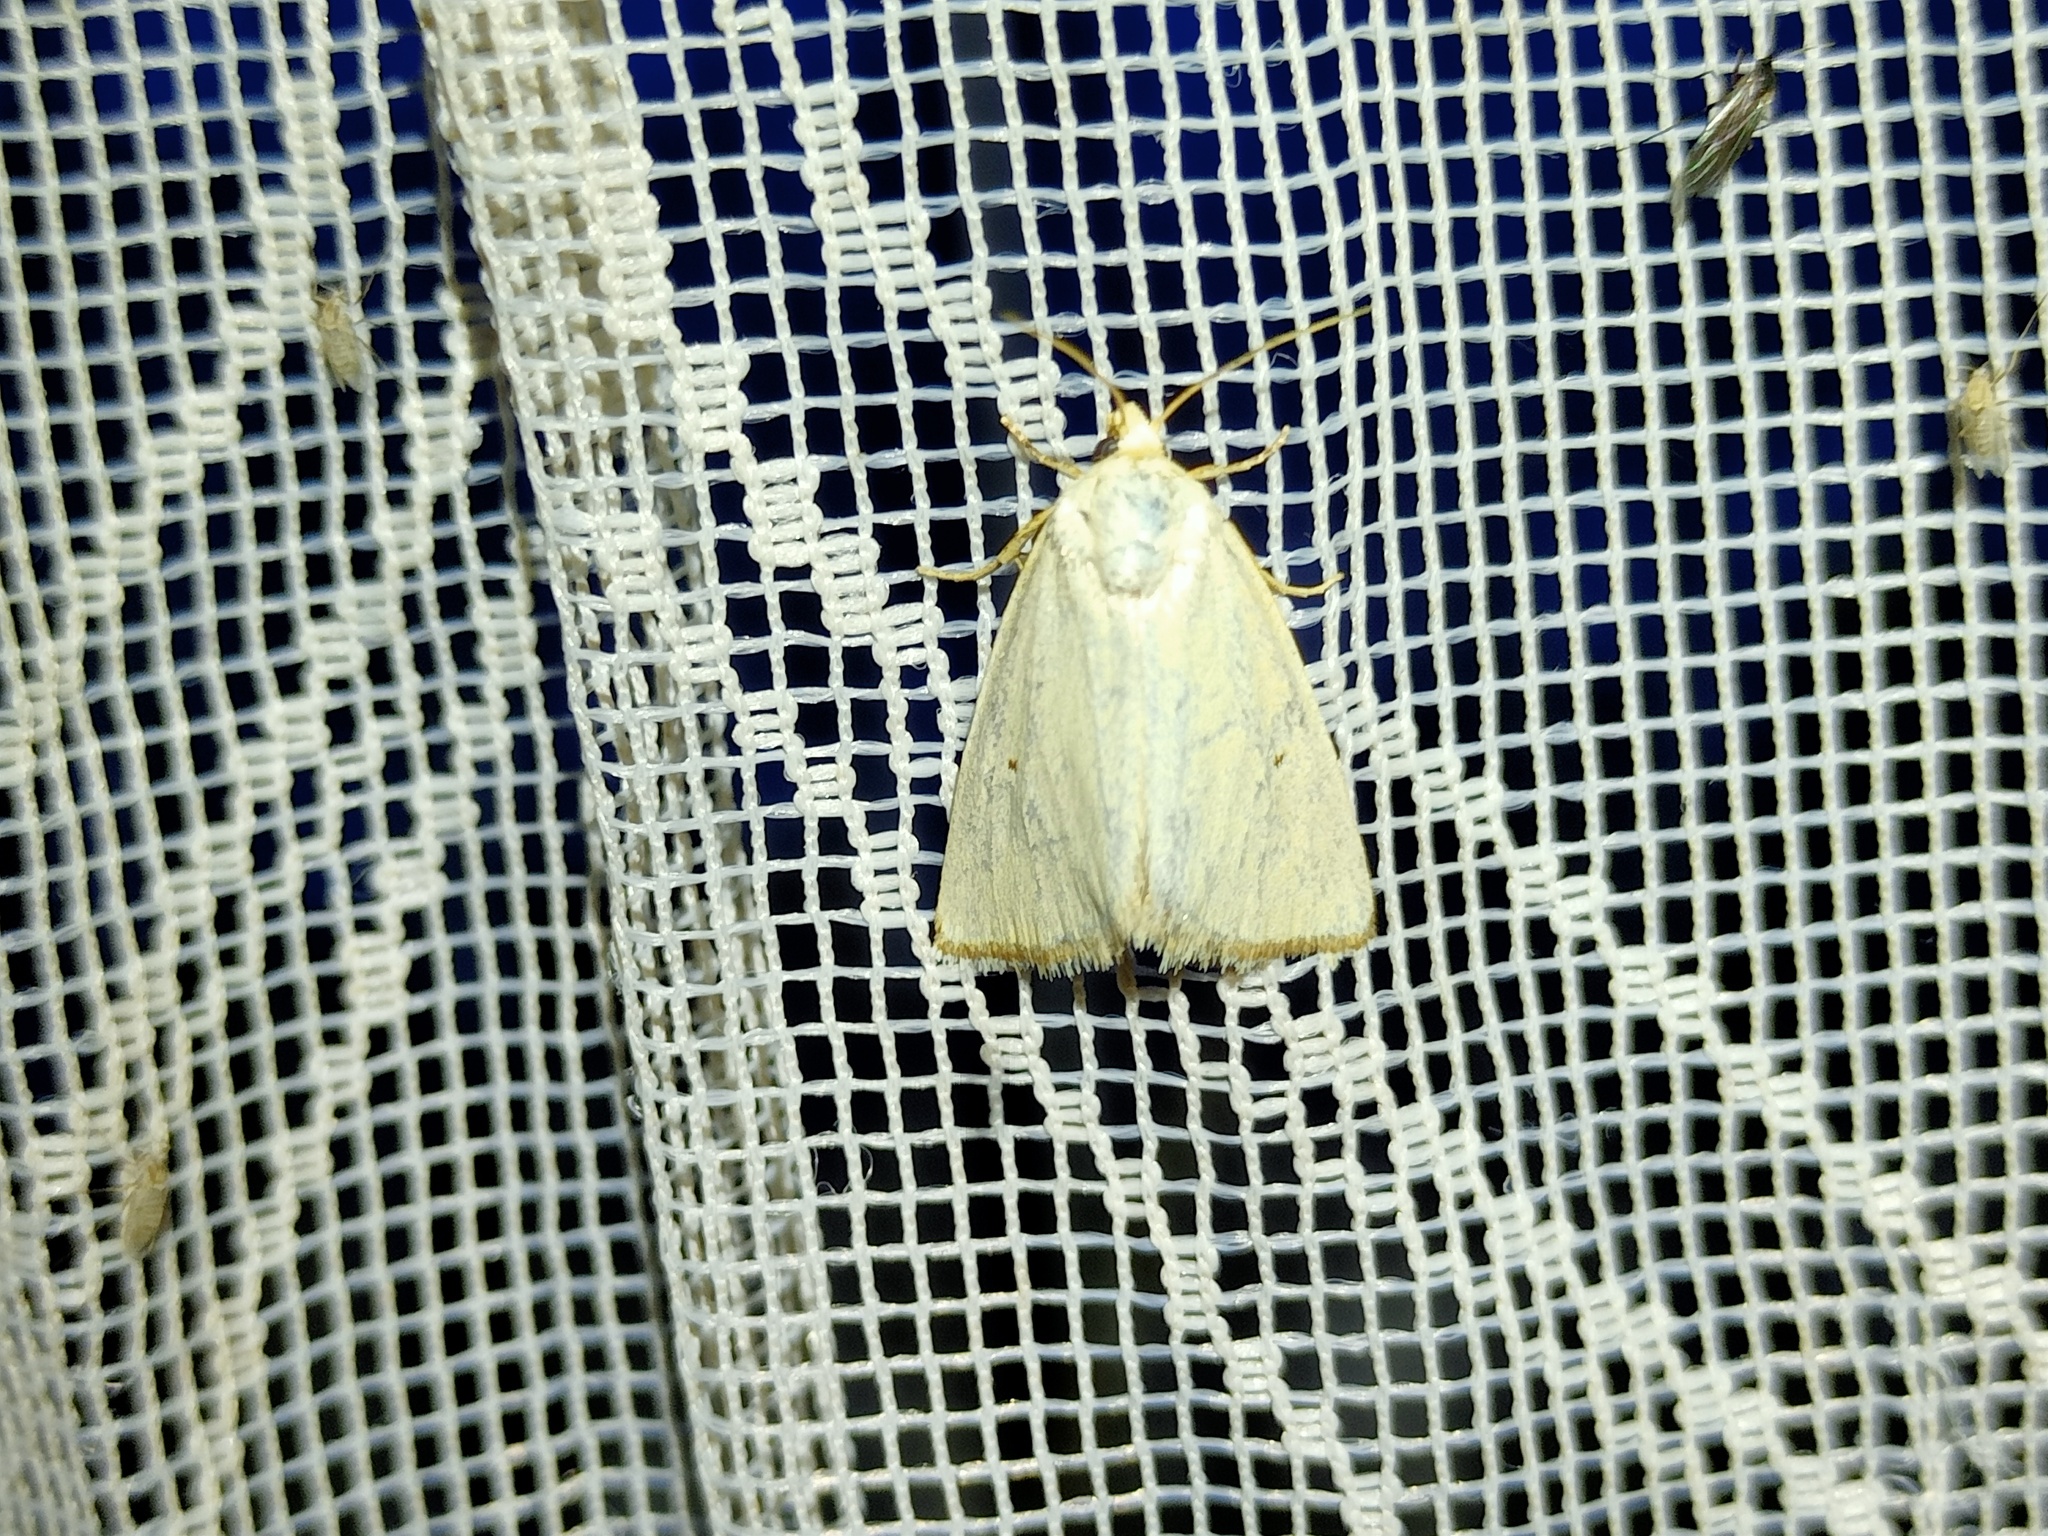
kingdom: Animalia
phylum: Arthropoda
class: Insecta
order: Lepidoptera
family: Noctuidae
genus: Aegle
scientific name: Aegle kaekeritziana
